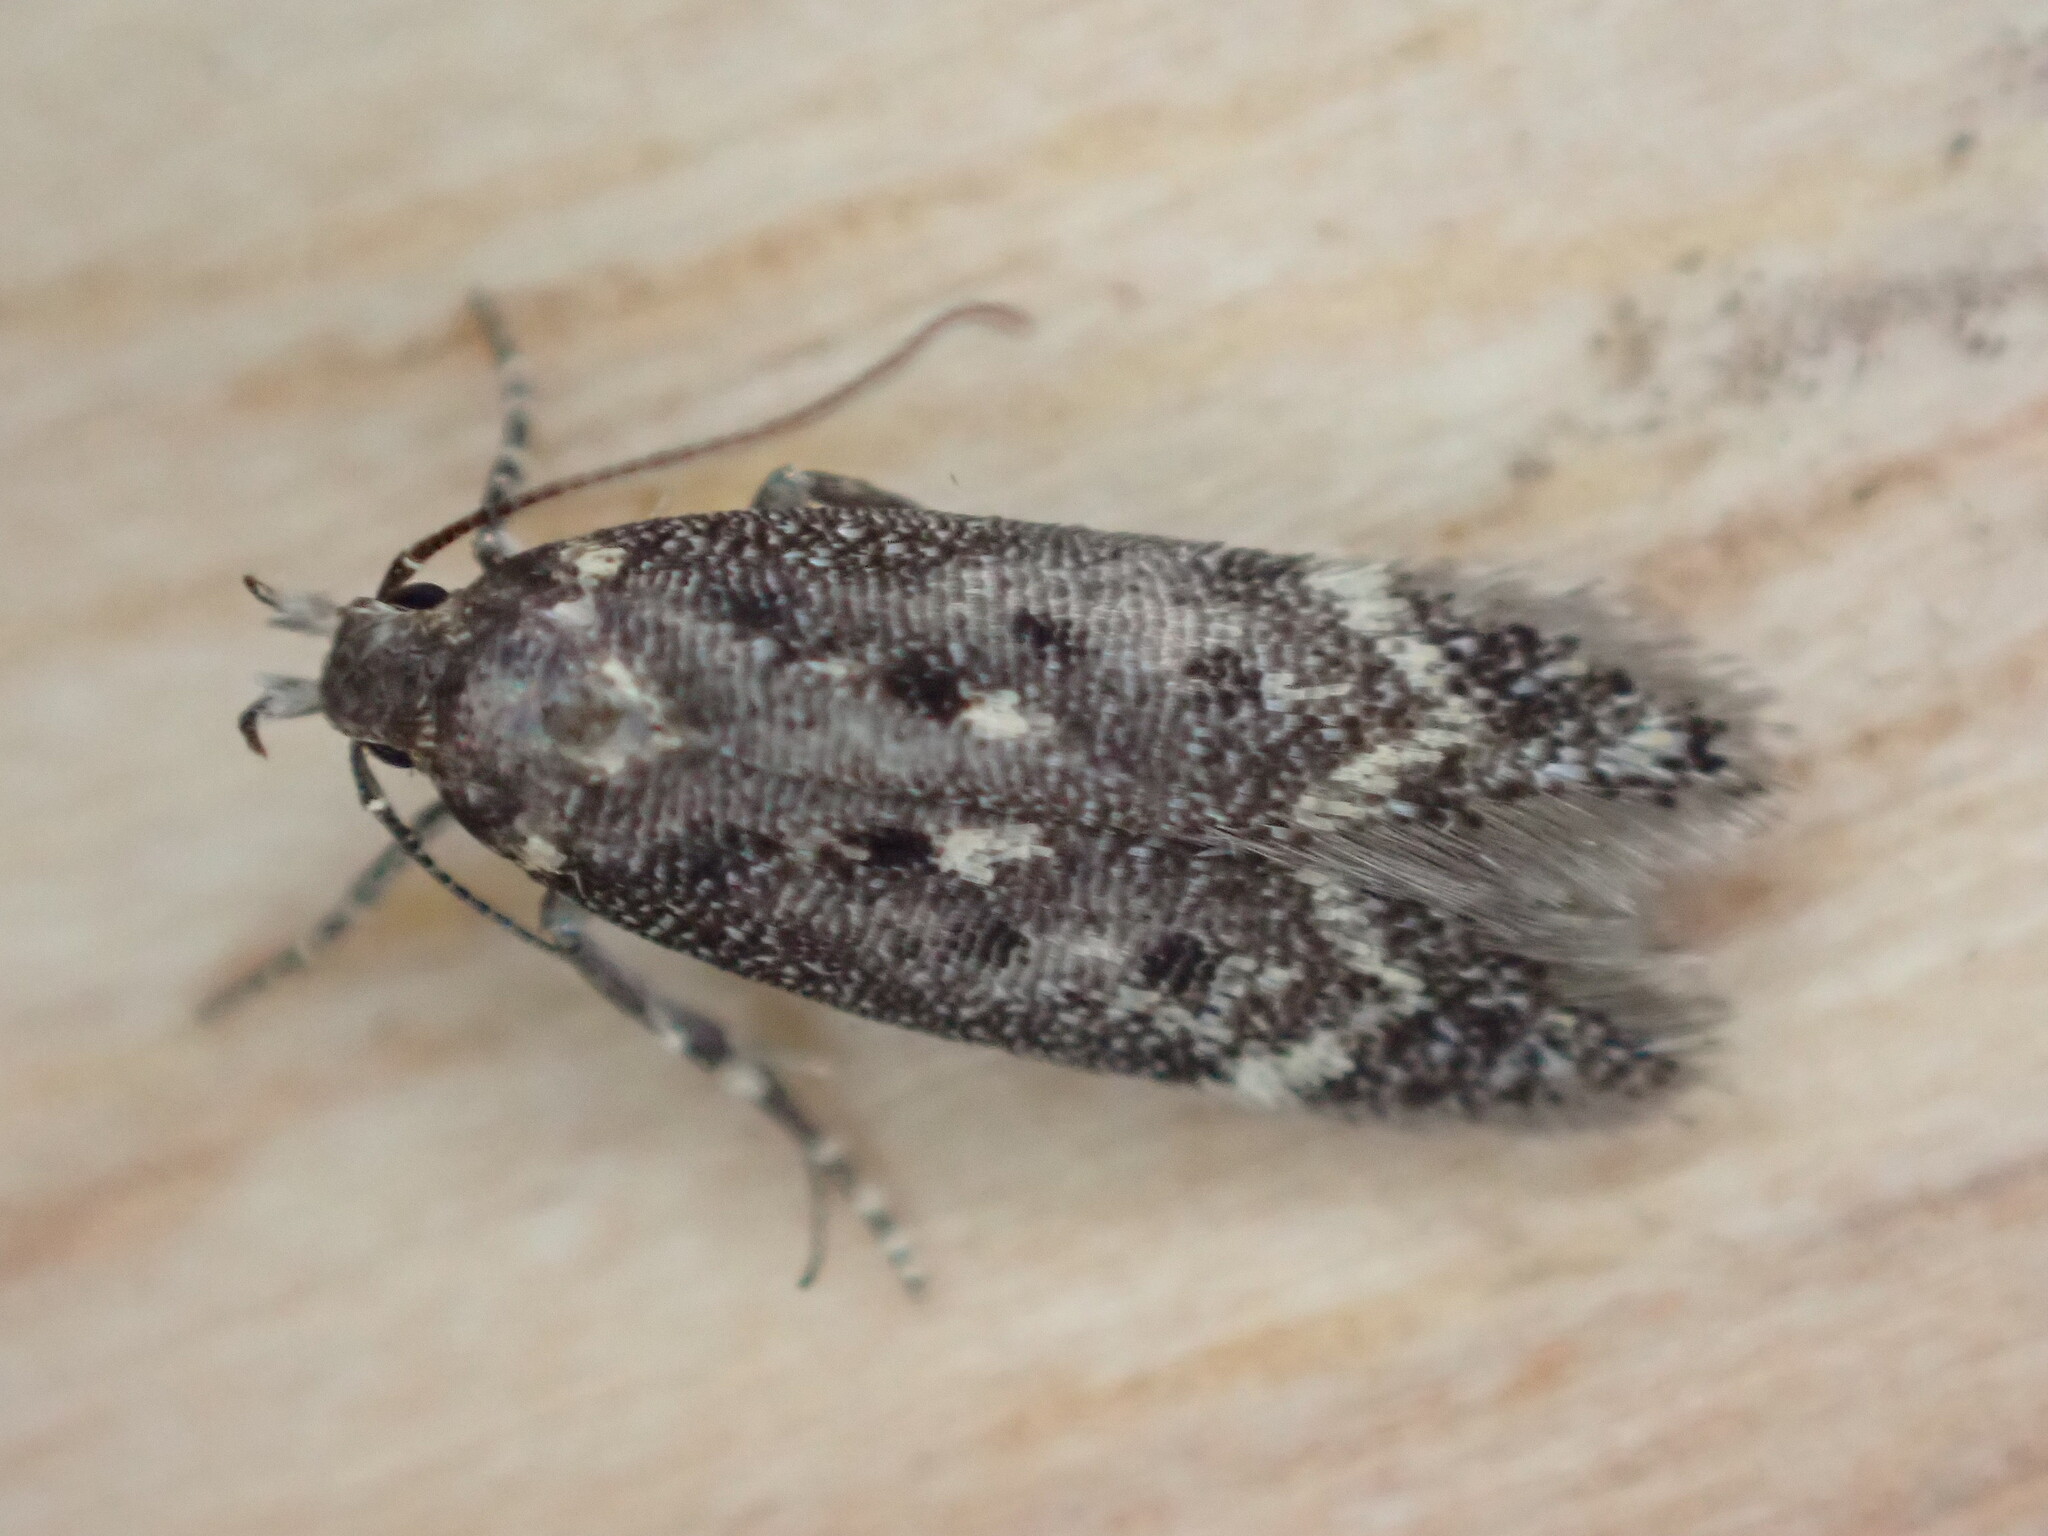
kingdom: Animalia
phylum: Arthropoda
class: Insecta
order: Lepidoptera
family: Gelechiidae
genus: Bryotropha
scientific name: Bryotropha affinis
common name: Dark groundling
